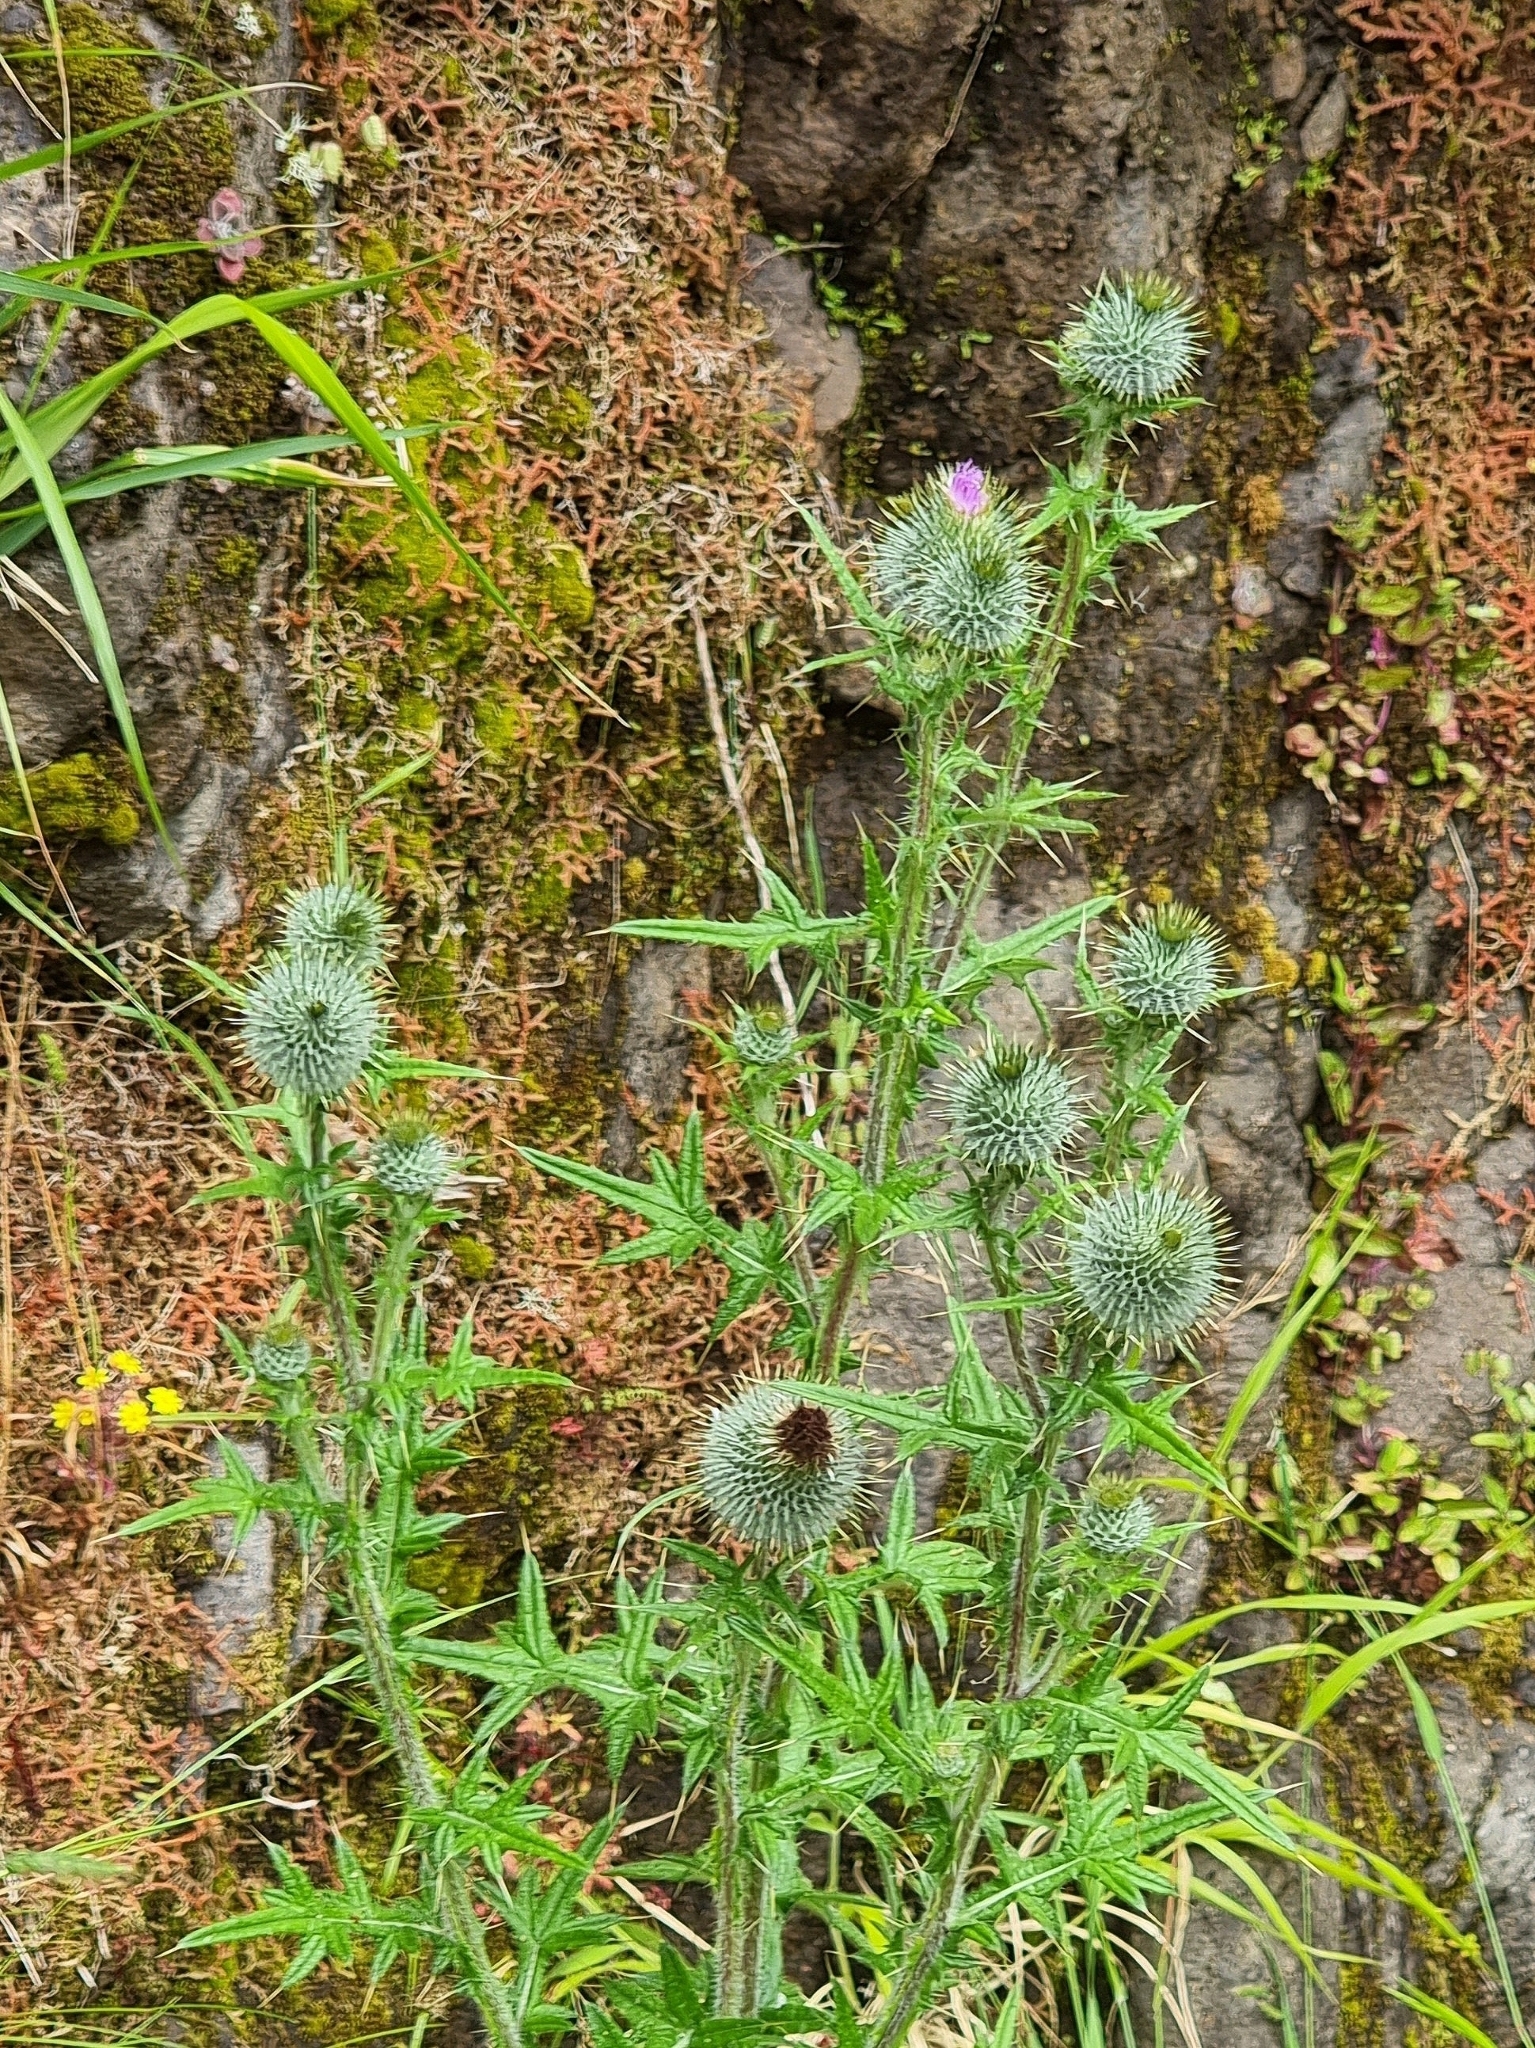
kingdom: Plantae
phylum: Tracheophyta
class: Magnoliopsida
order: Asterales
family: Asteraceae
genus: Cirsium
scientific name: Cirsium vulgare
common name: Bull thistle
